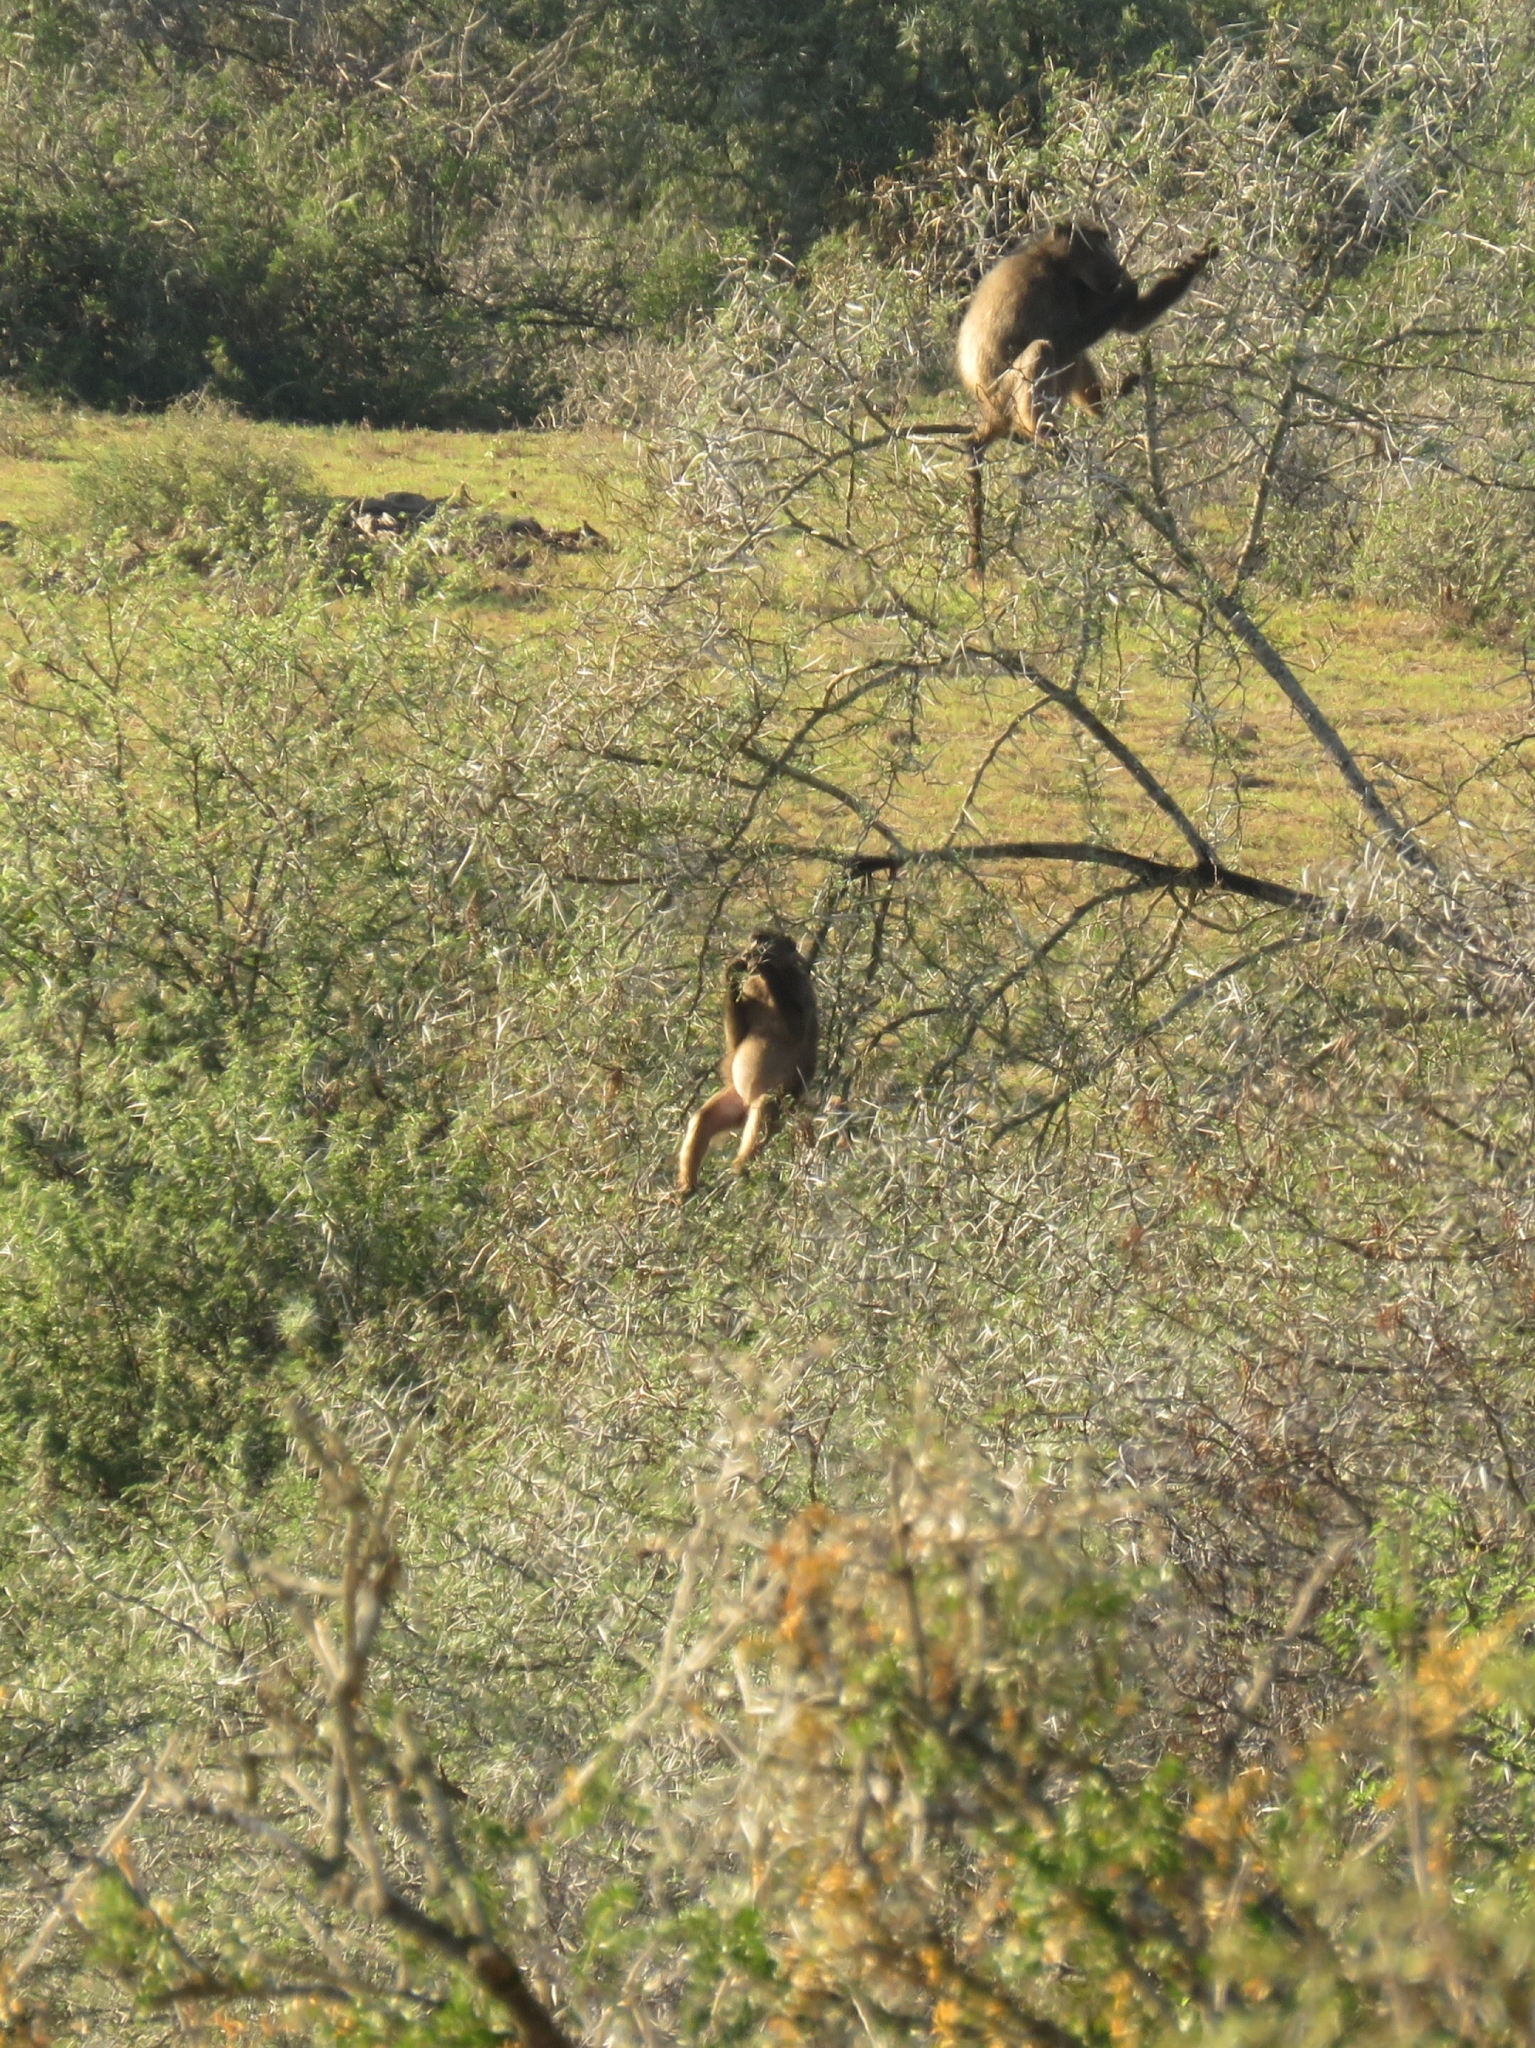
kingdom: Animalia
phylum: Chordata
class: Mammalia
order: Primates
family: Cercopithecidae
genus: Papio
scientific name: Papio ursinus
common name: Chacma baboon
